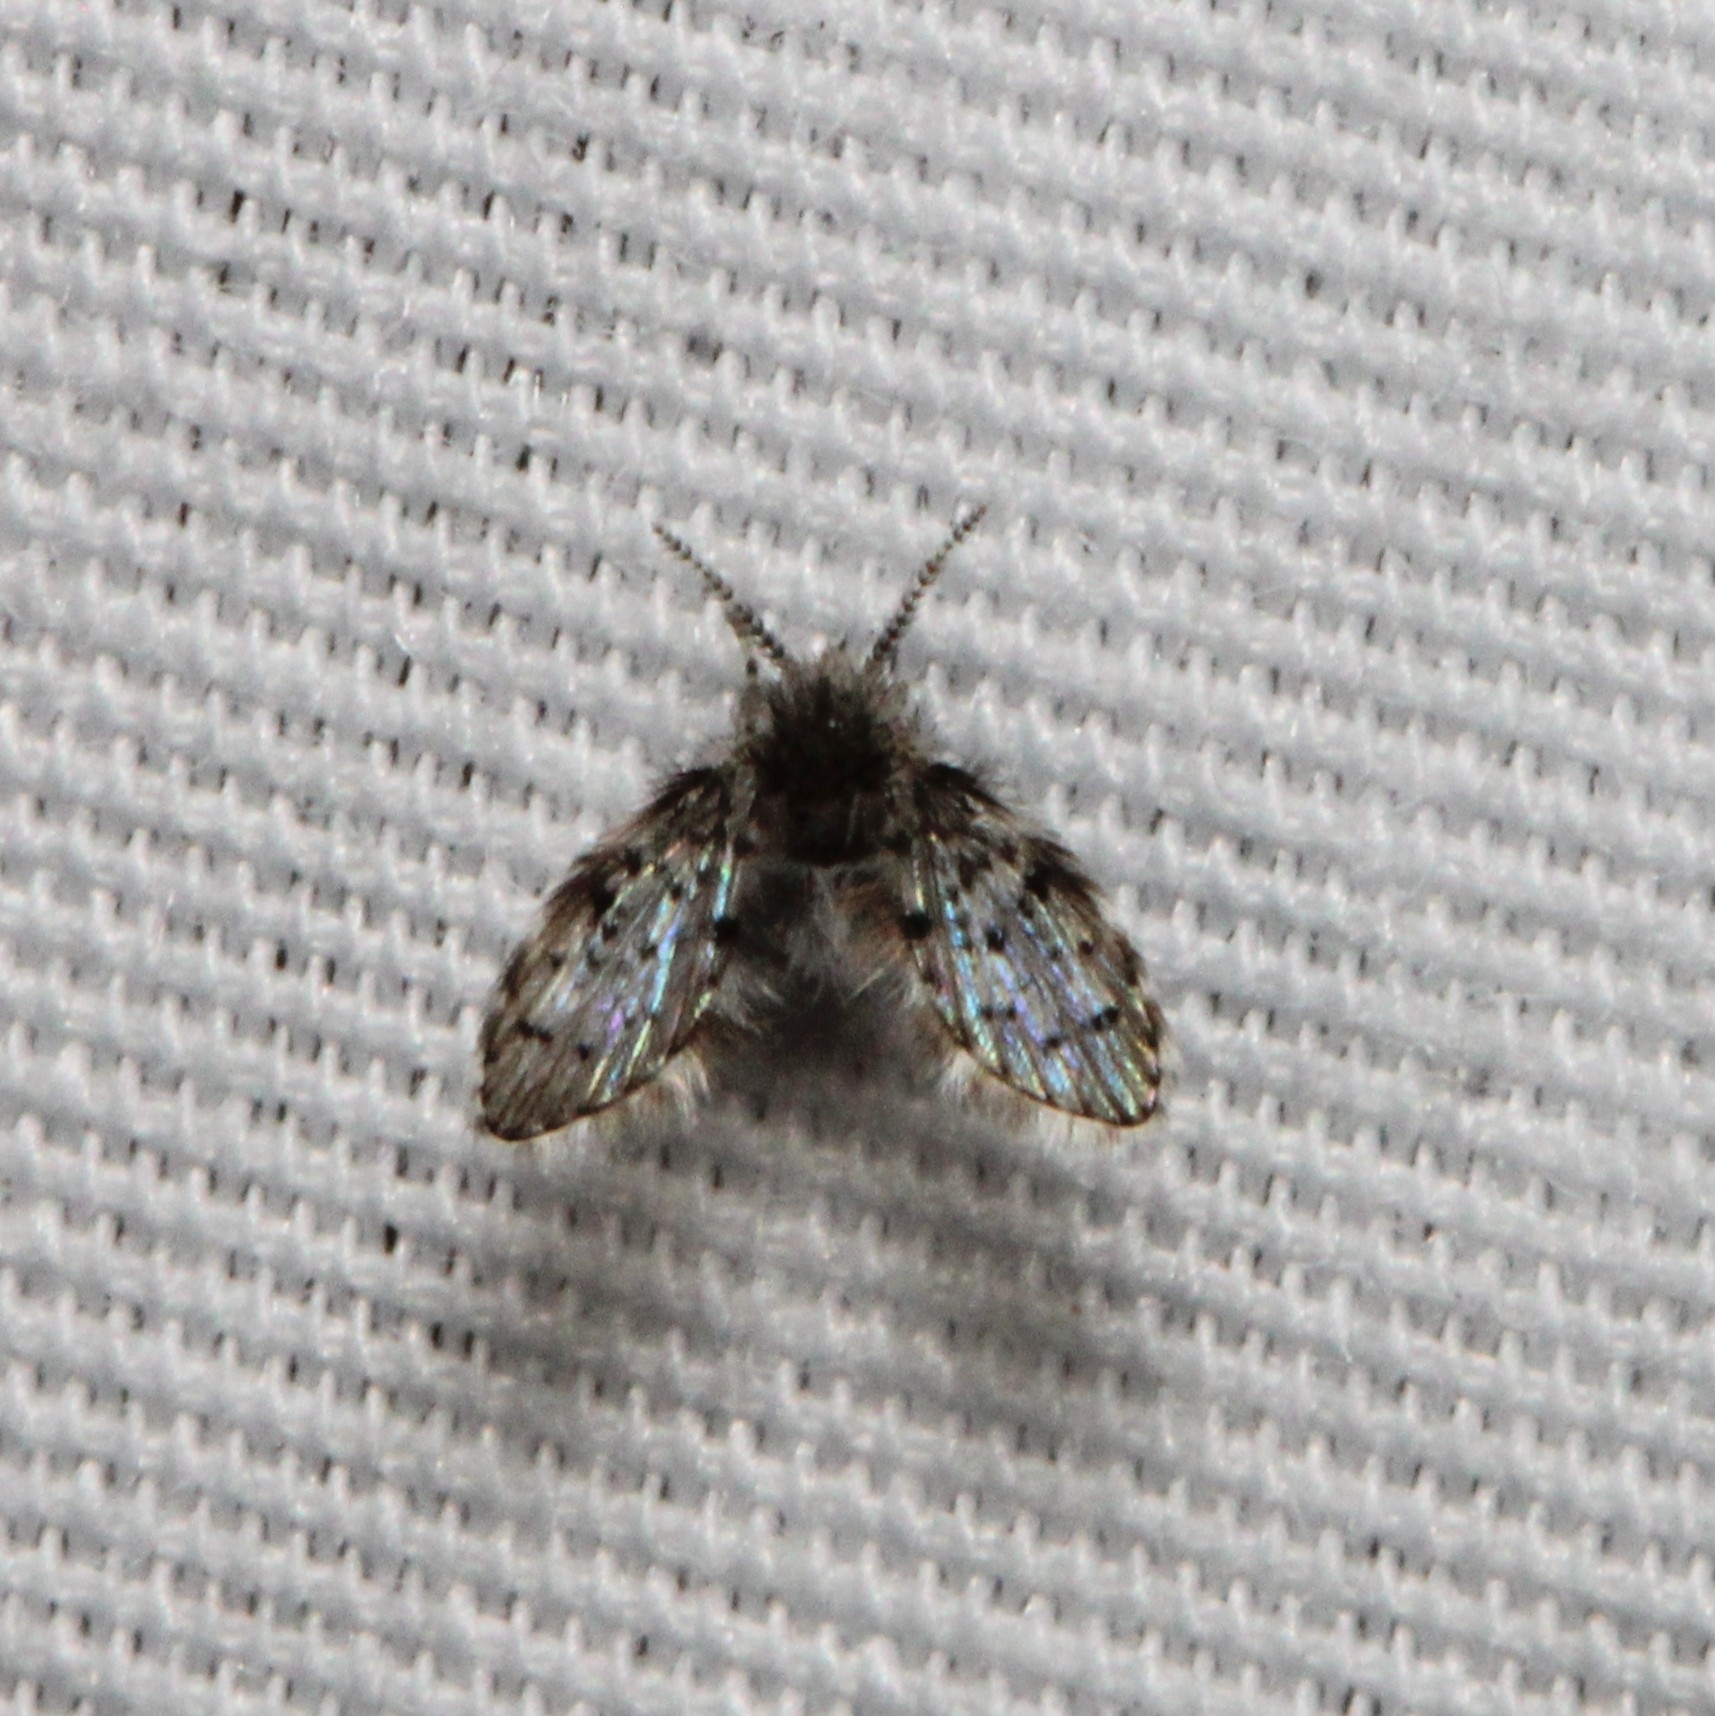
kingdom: Animalia
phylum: Arthropoda
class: Insecta
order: Diptera
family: Psychodidae
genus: Clogmia
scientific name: Clogmia albipunctatus
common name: White-spotted moth fly
